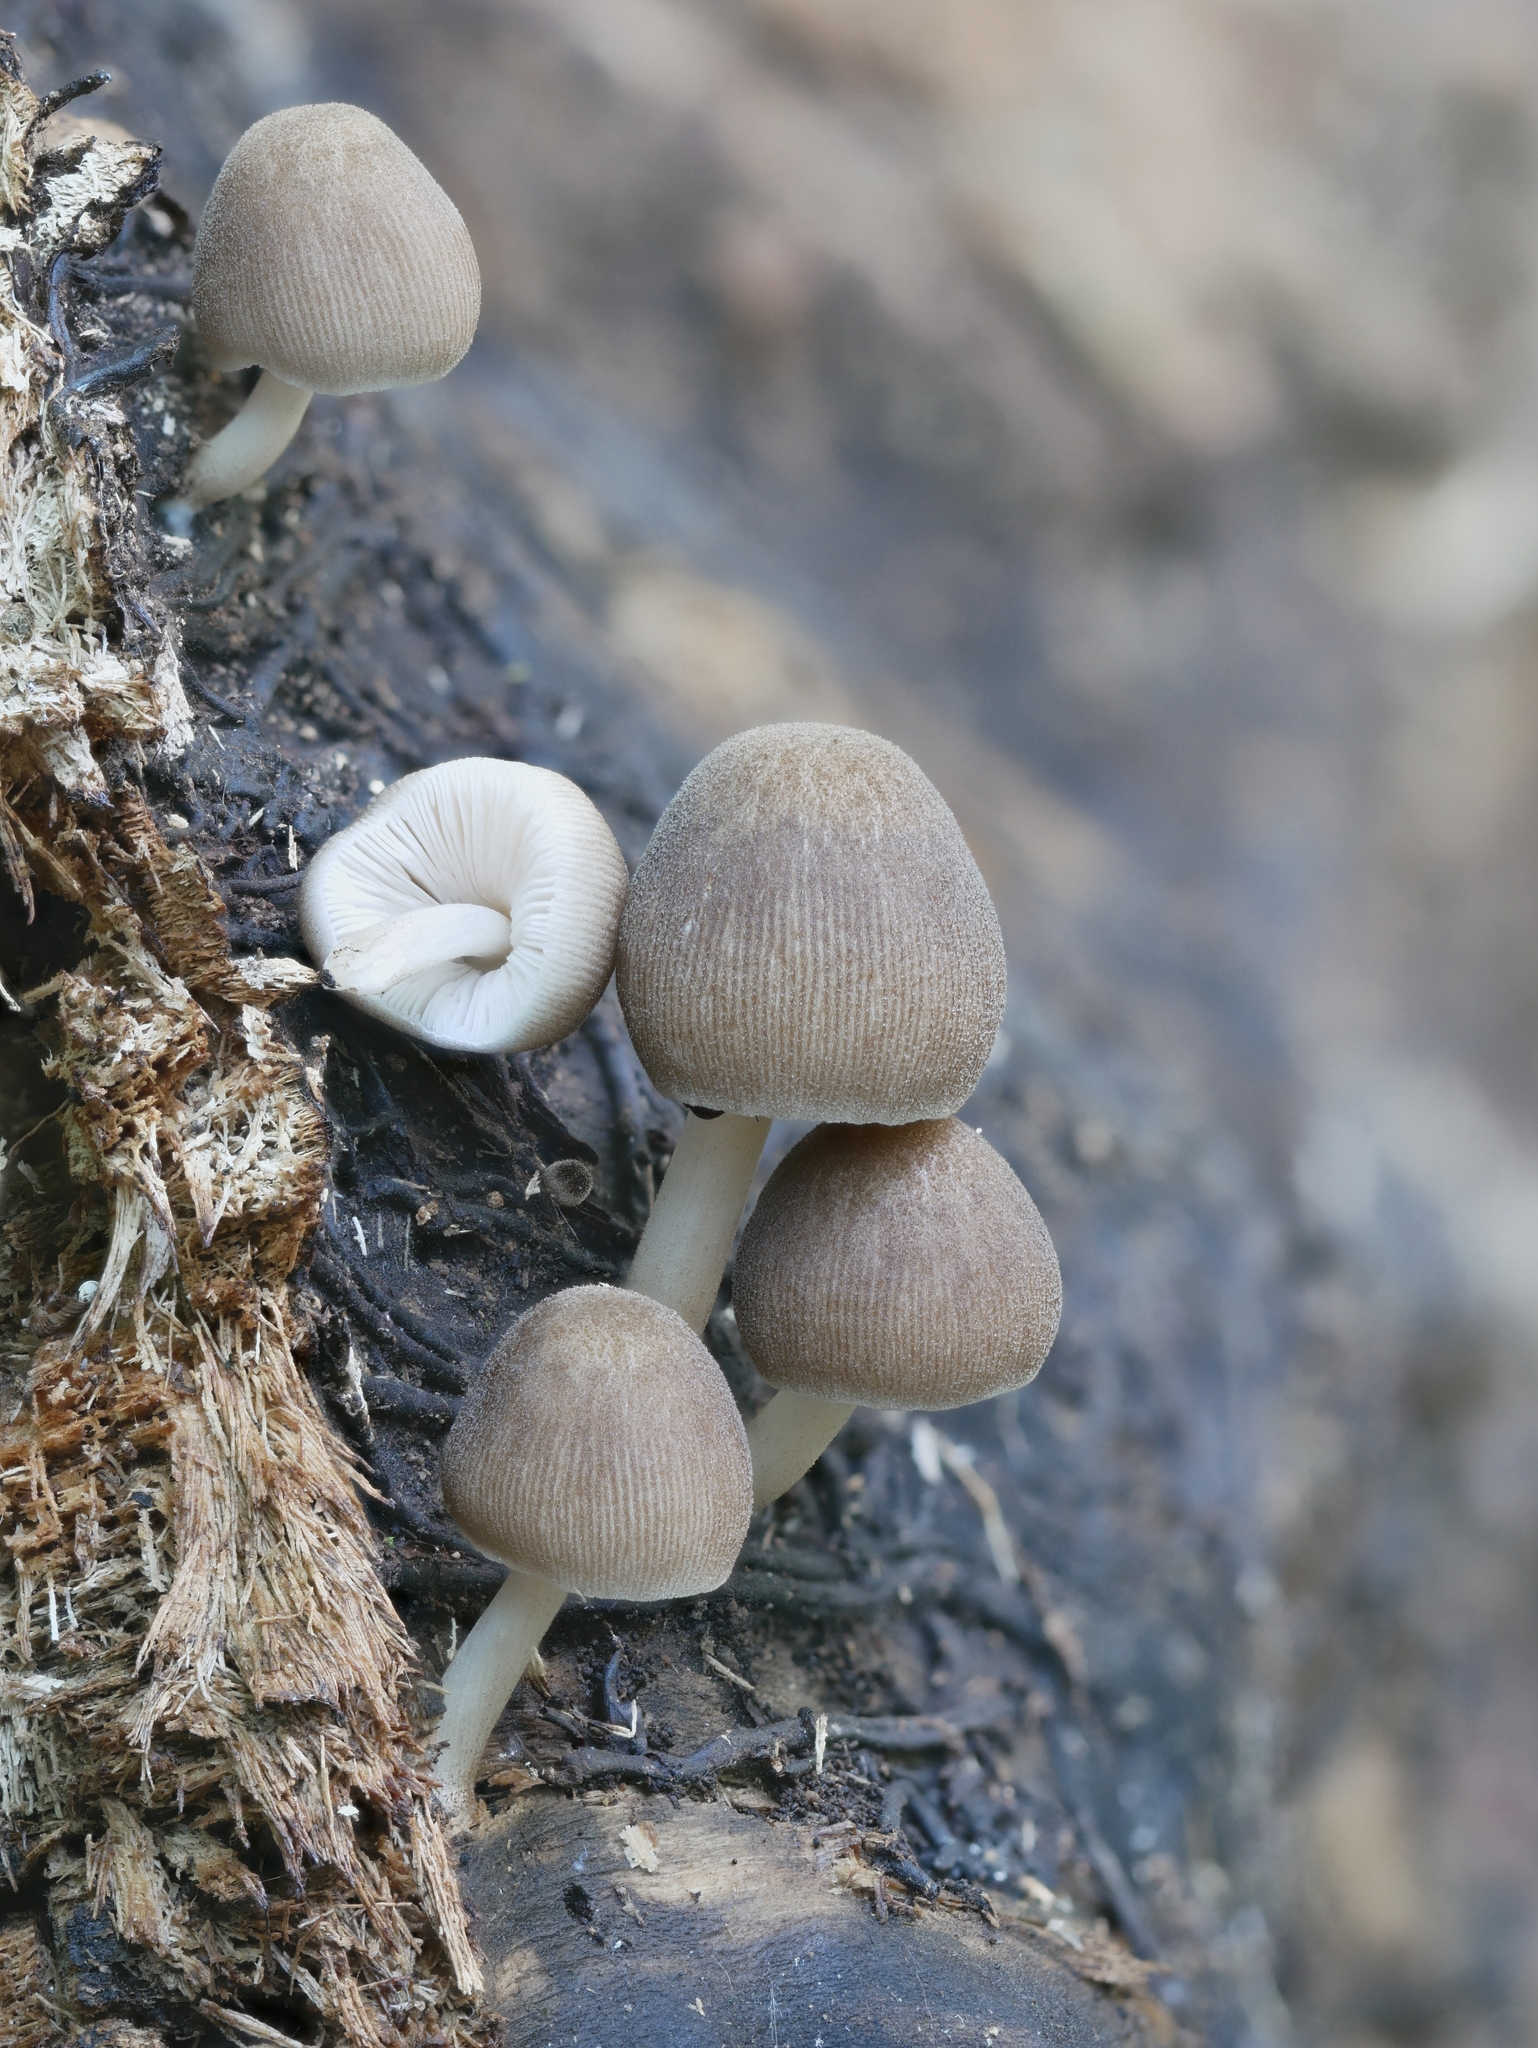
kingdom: Fungi
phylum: Basidiomycota
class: Agaricomycetes
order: Agaricales
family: Pluteaceae
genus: Pluteus
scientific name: Pluteus longistriatus
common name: Pleated pluteus
